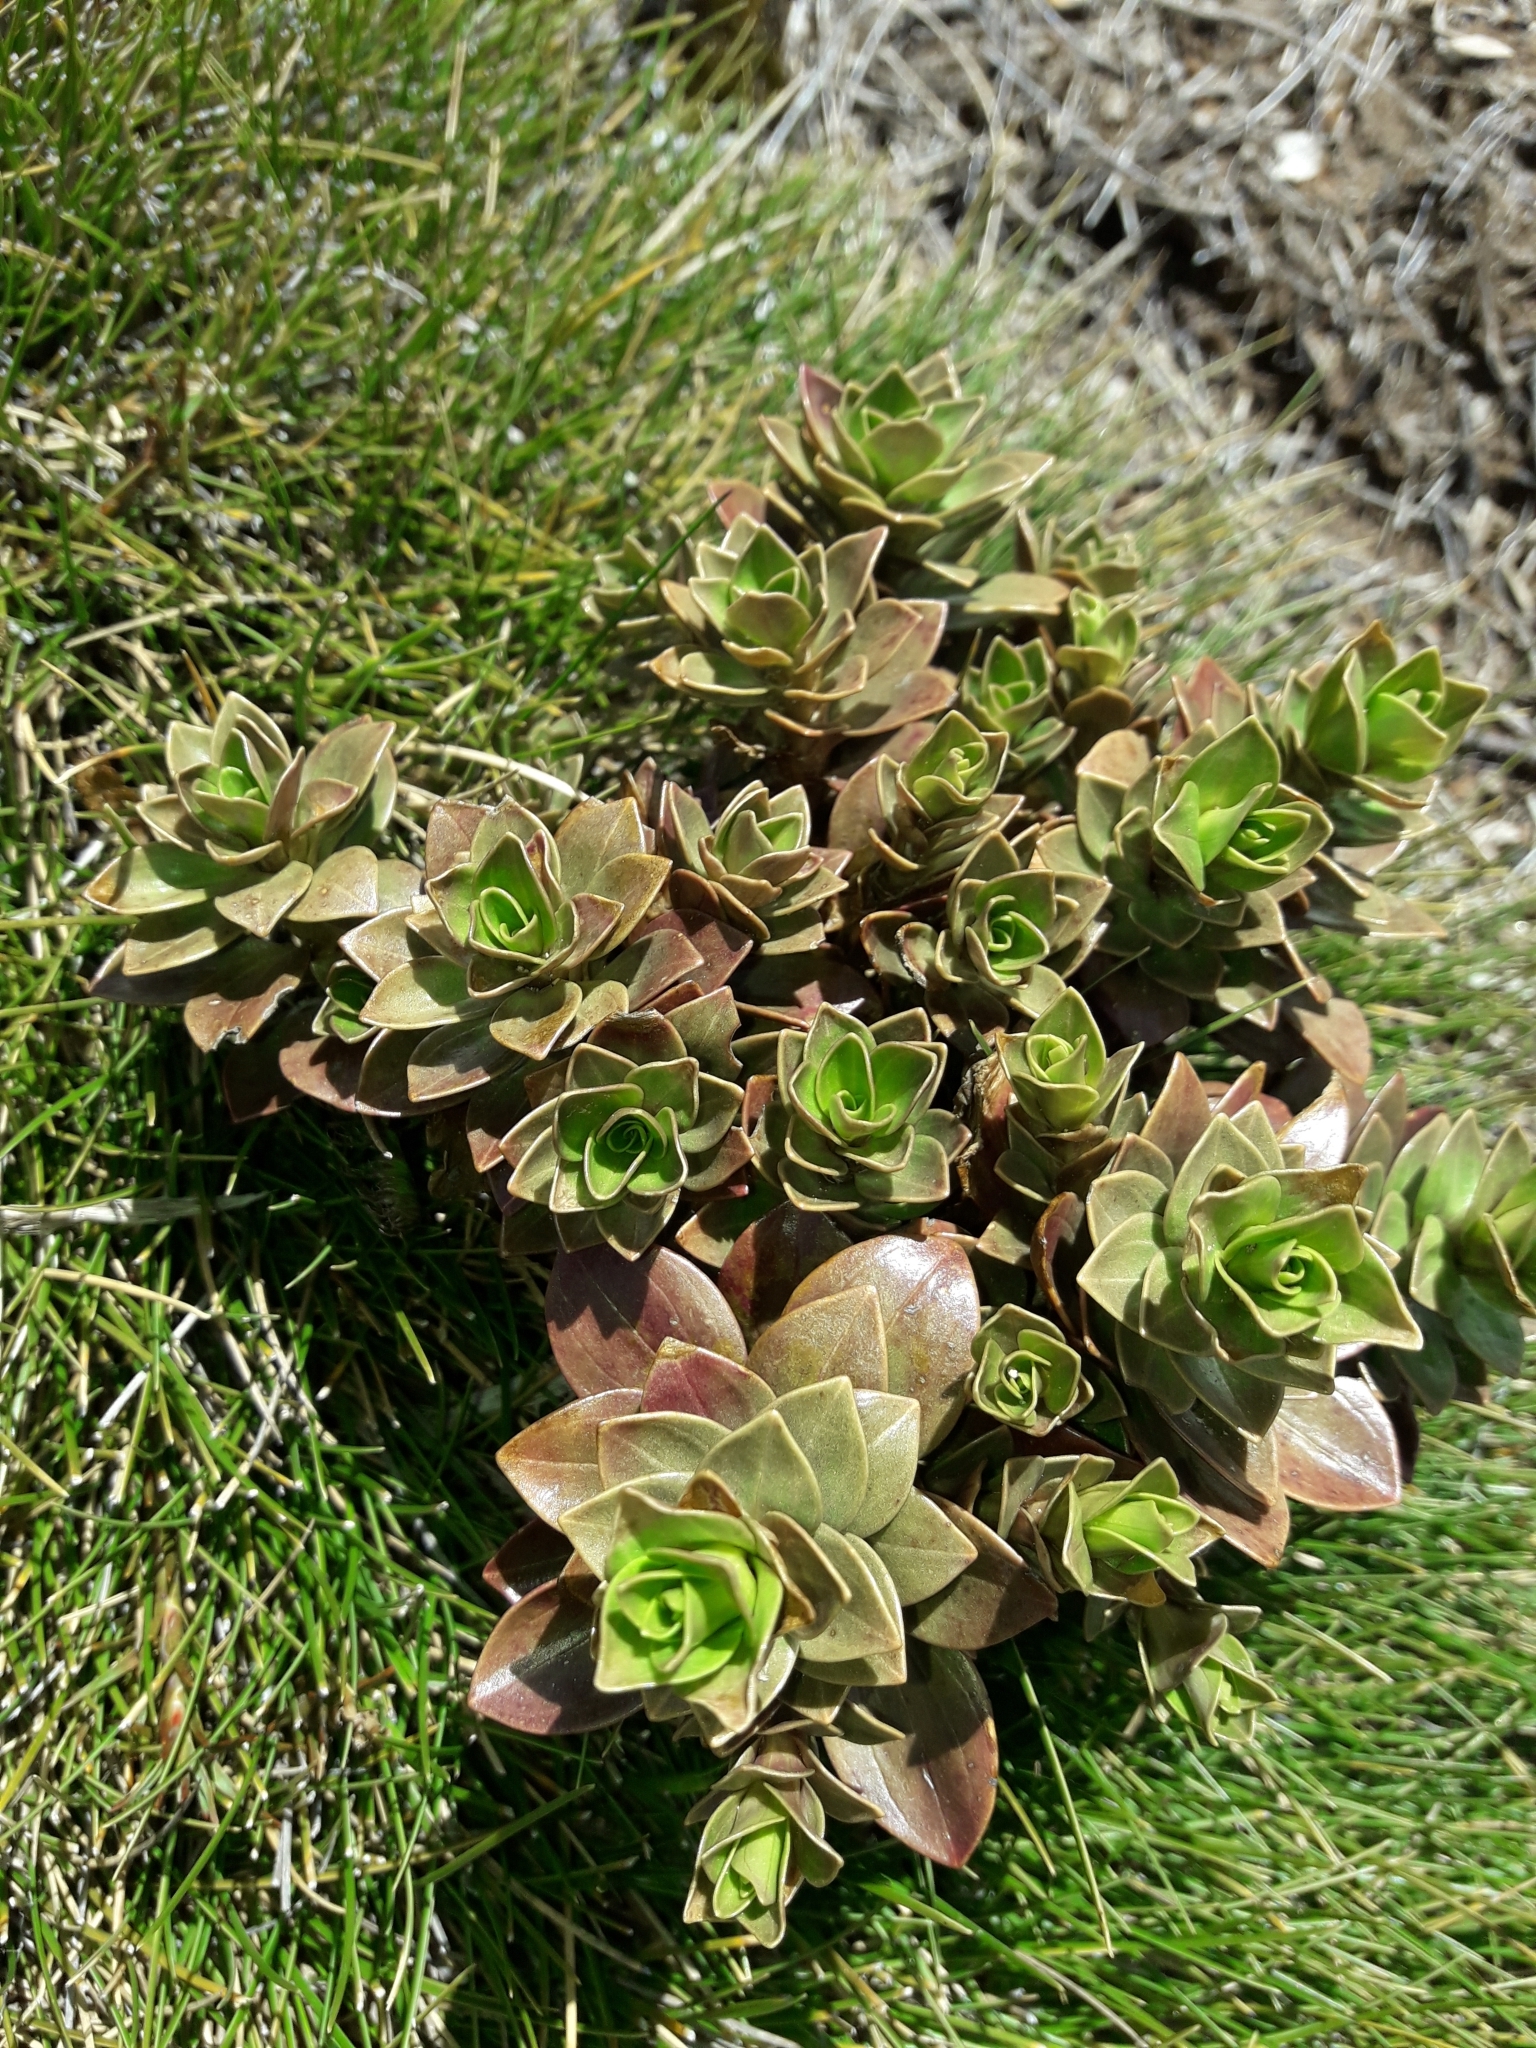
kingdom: Plantae
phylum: Tracheophyta
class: Magnoliopsida
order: Gentianales
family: Gentianaceae
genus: Gentianella
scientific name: Gentianella impressinervia
